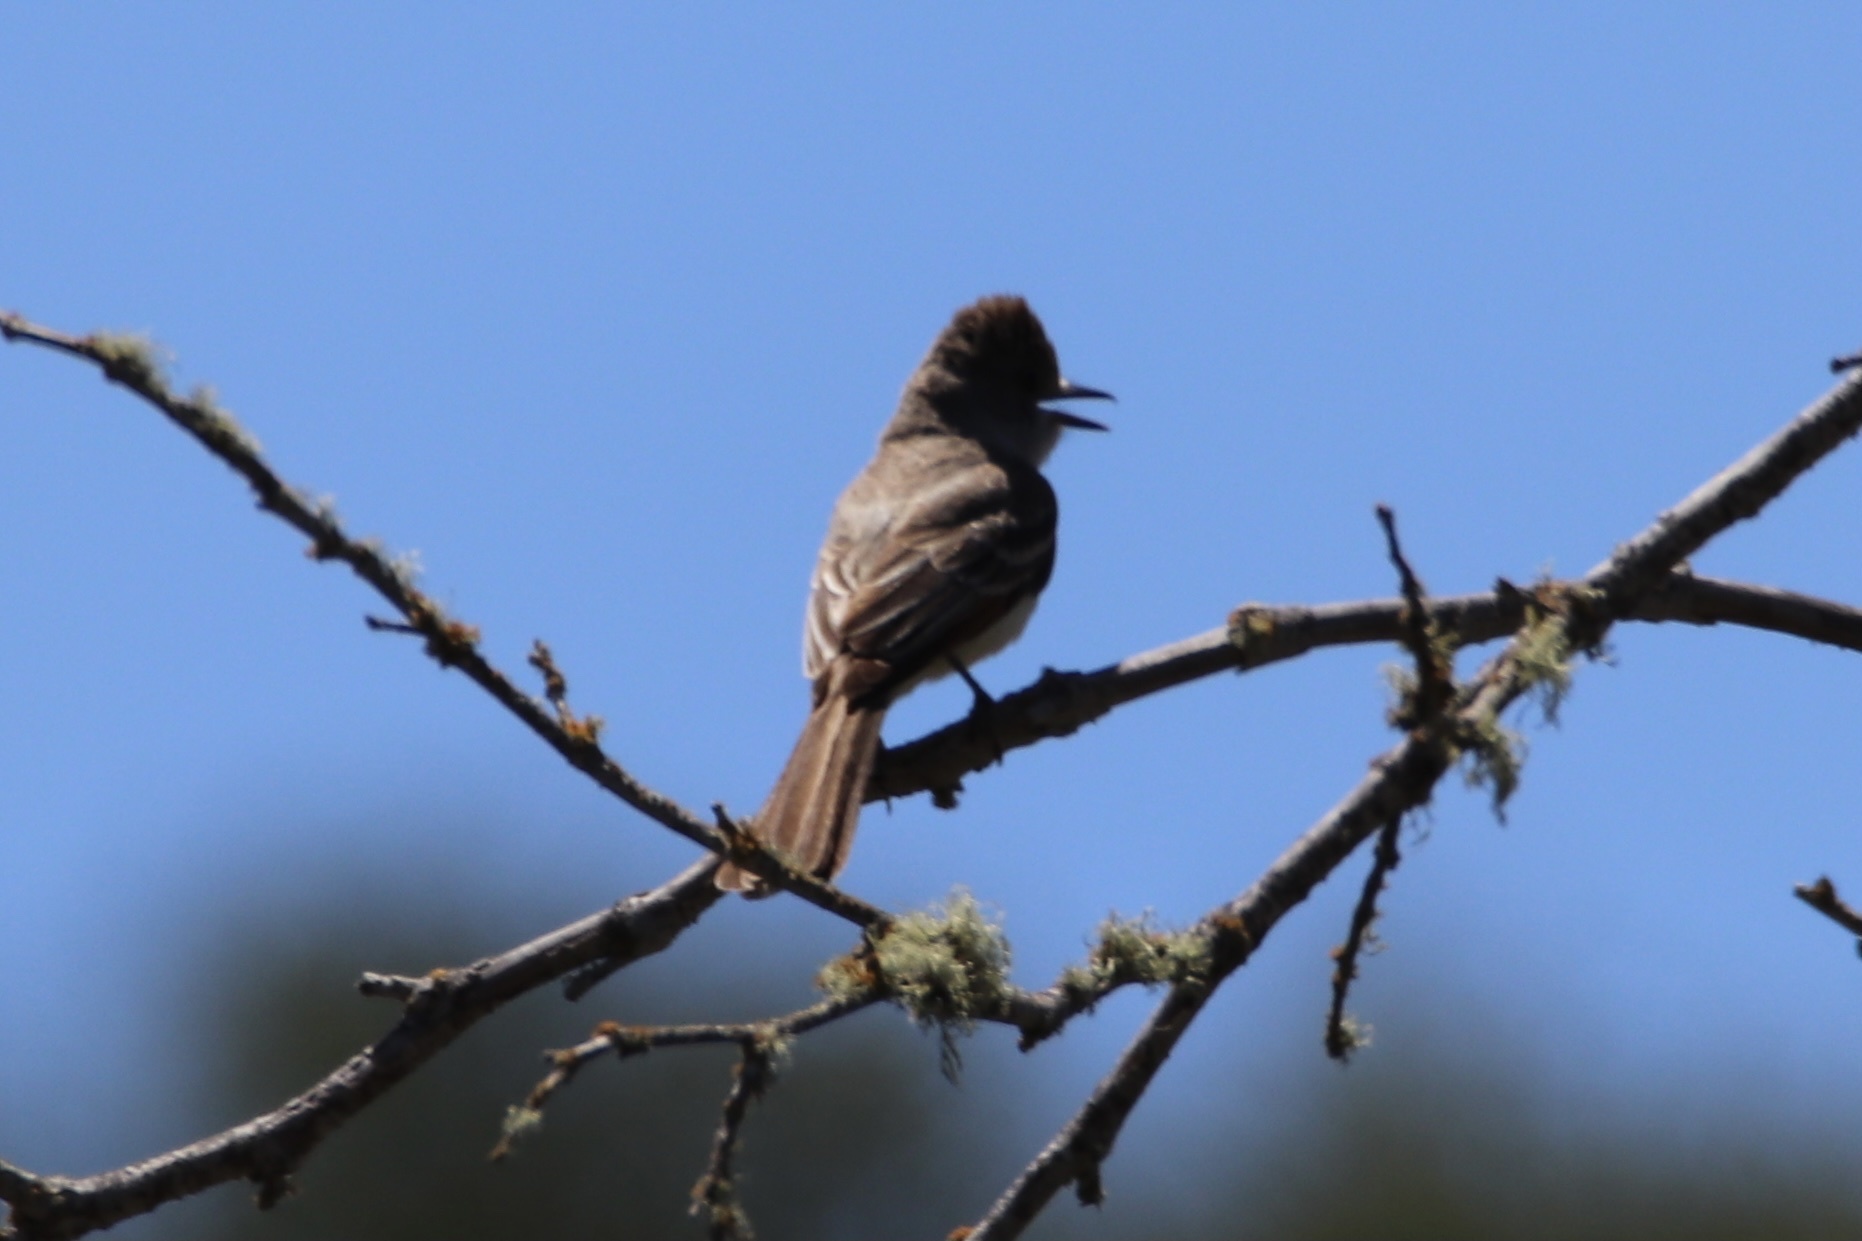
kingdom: Animalia
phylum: Chordata
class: Aves
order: Passeriformes
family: Tyrannidae
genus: Myiarchus
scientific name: Myiarchus cinerascens
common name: Ash-throated flycatcher
